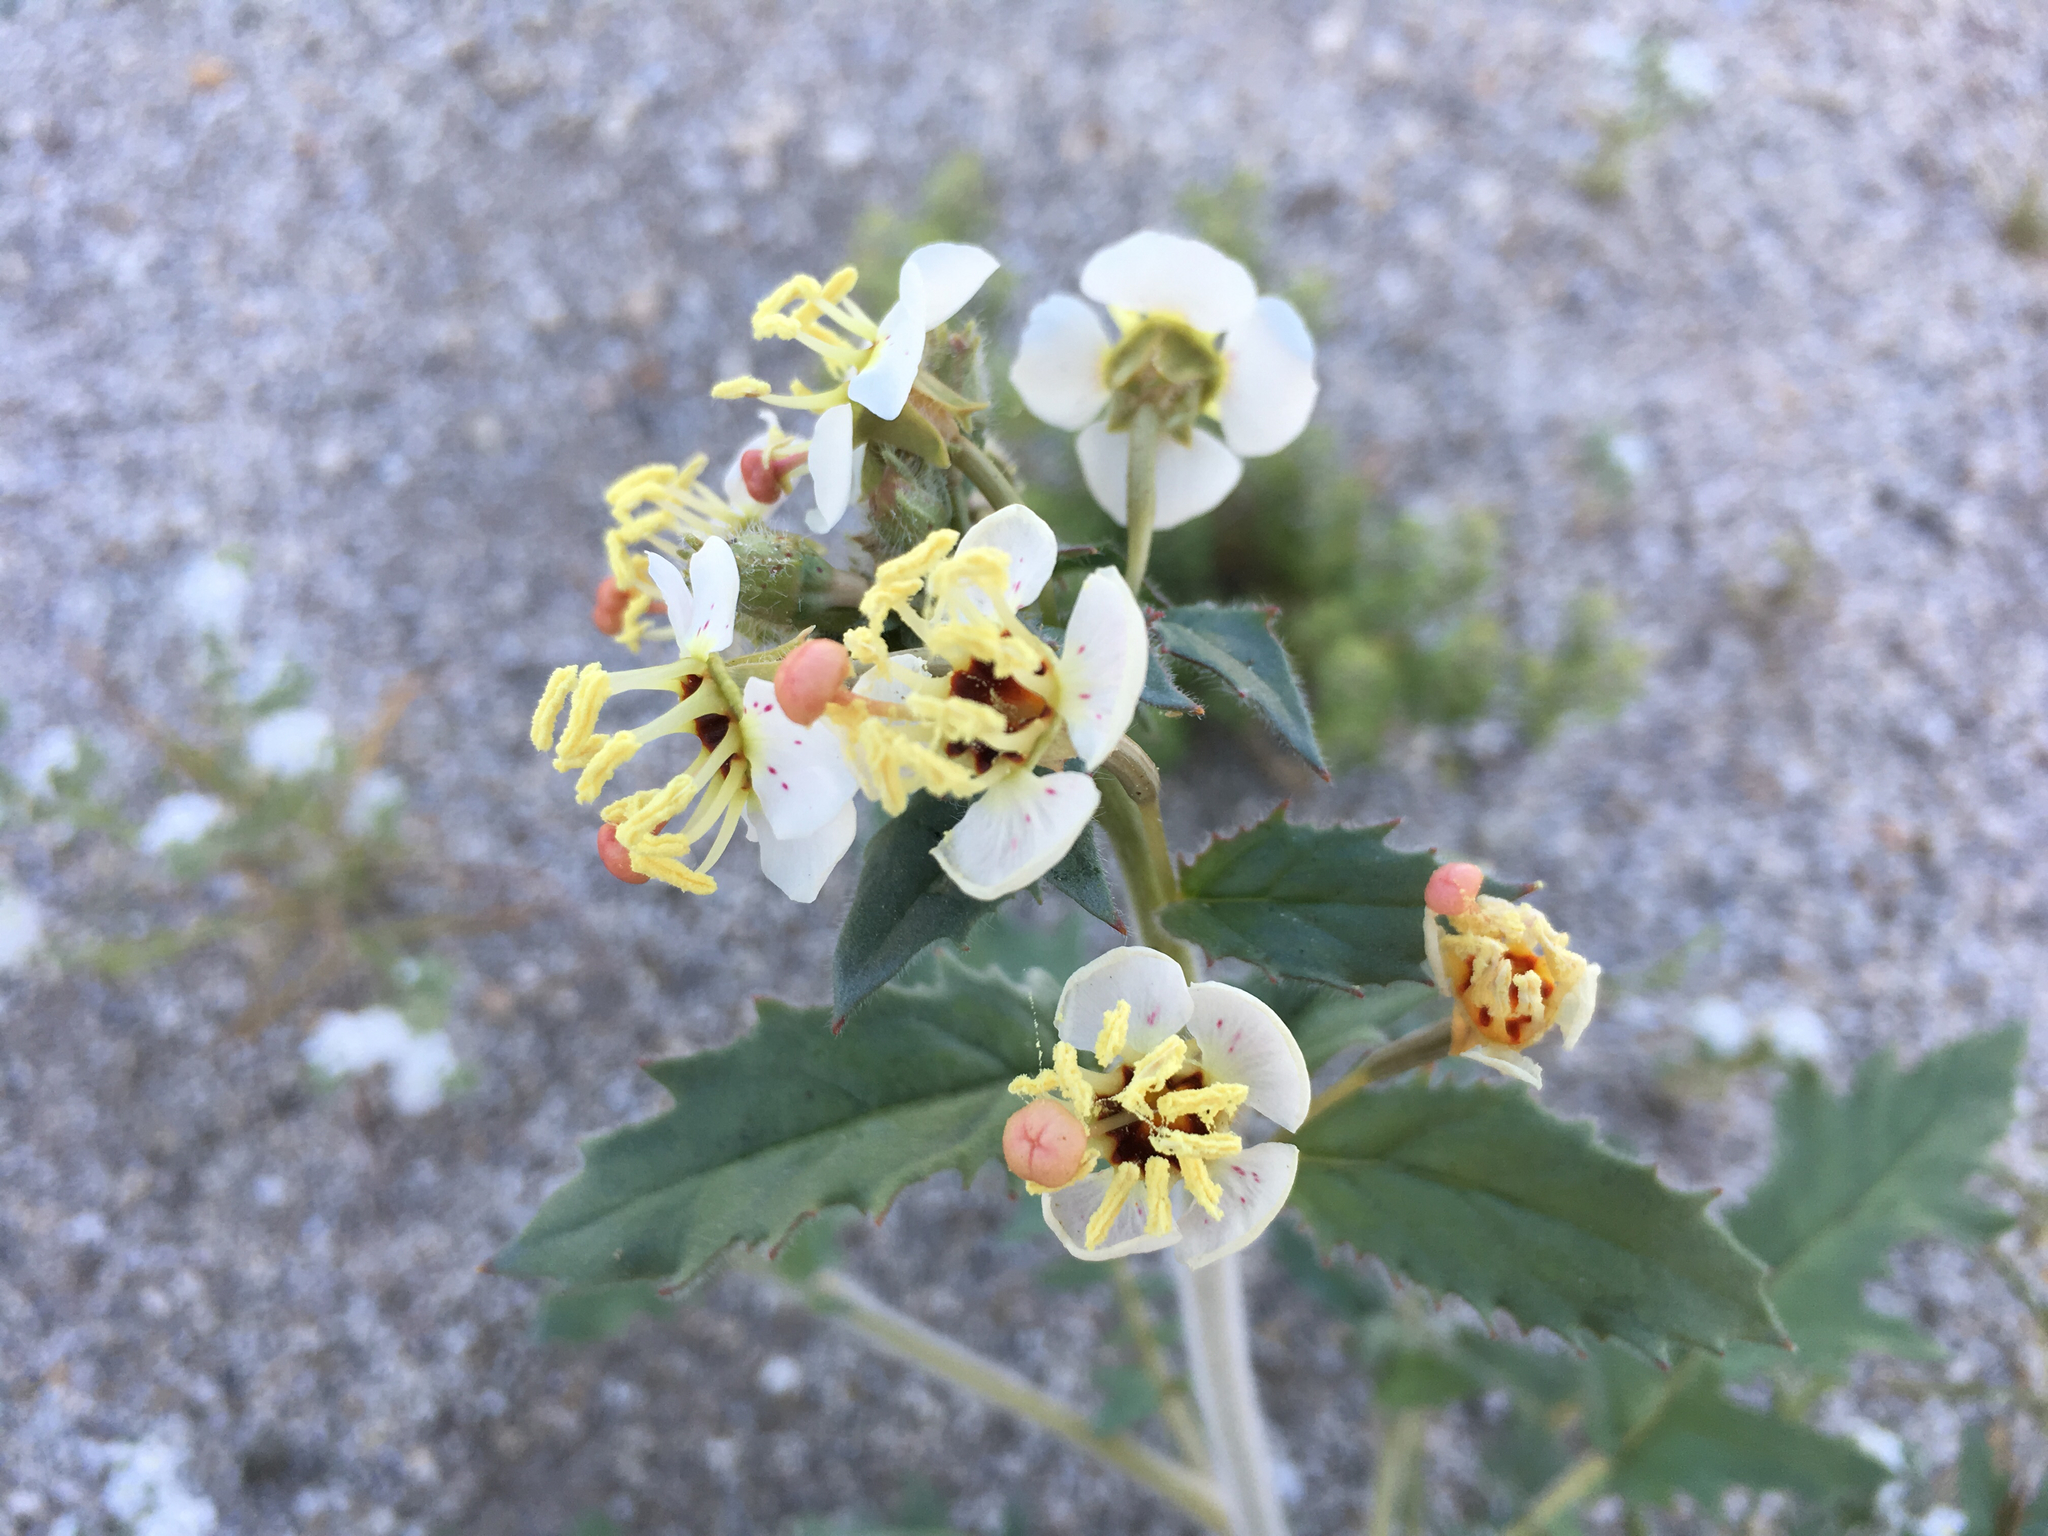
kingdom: Plantae
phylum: Tracheophyta
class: Magnoliopsida
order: Myrtales
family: Onagraceae
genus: Chylismia
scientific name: Chylismia claviformis
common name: Browneyes
